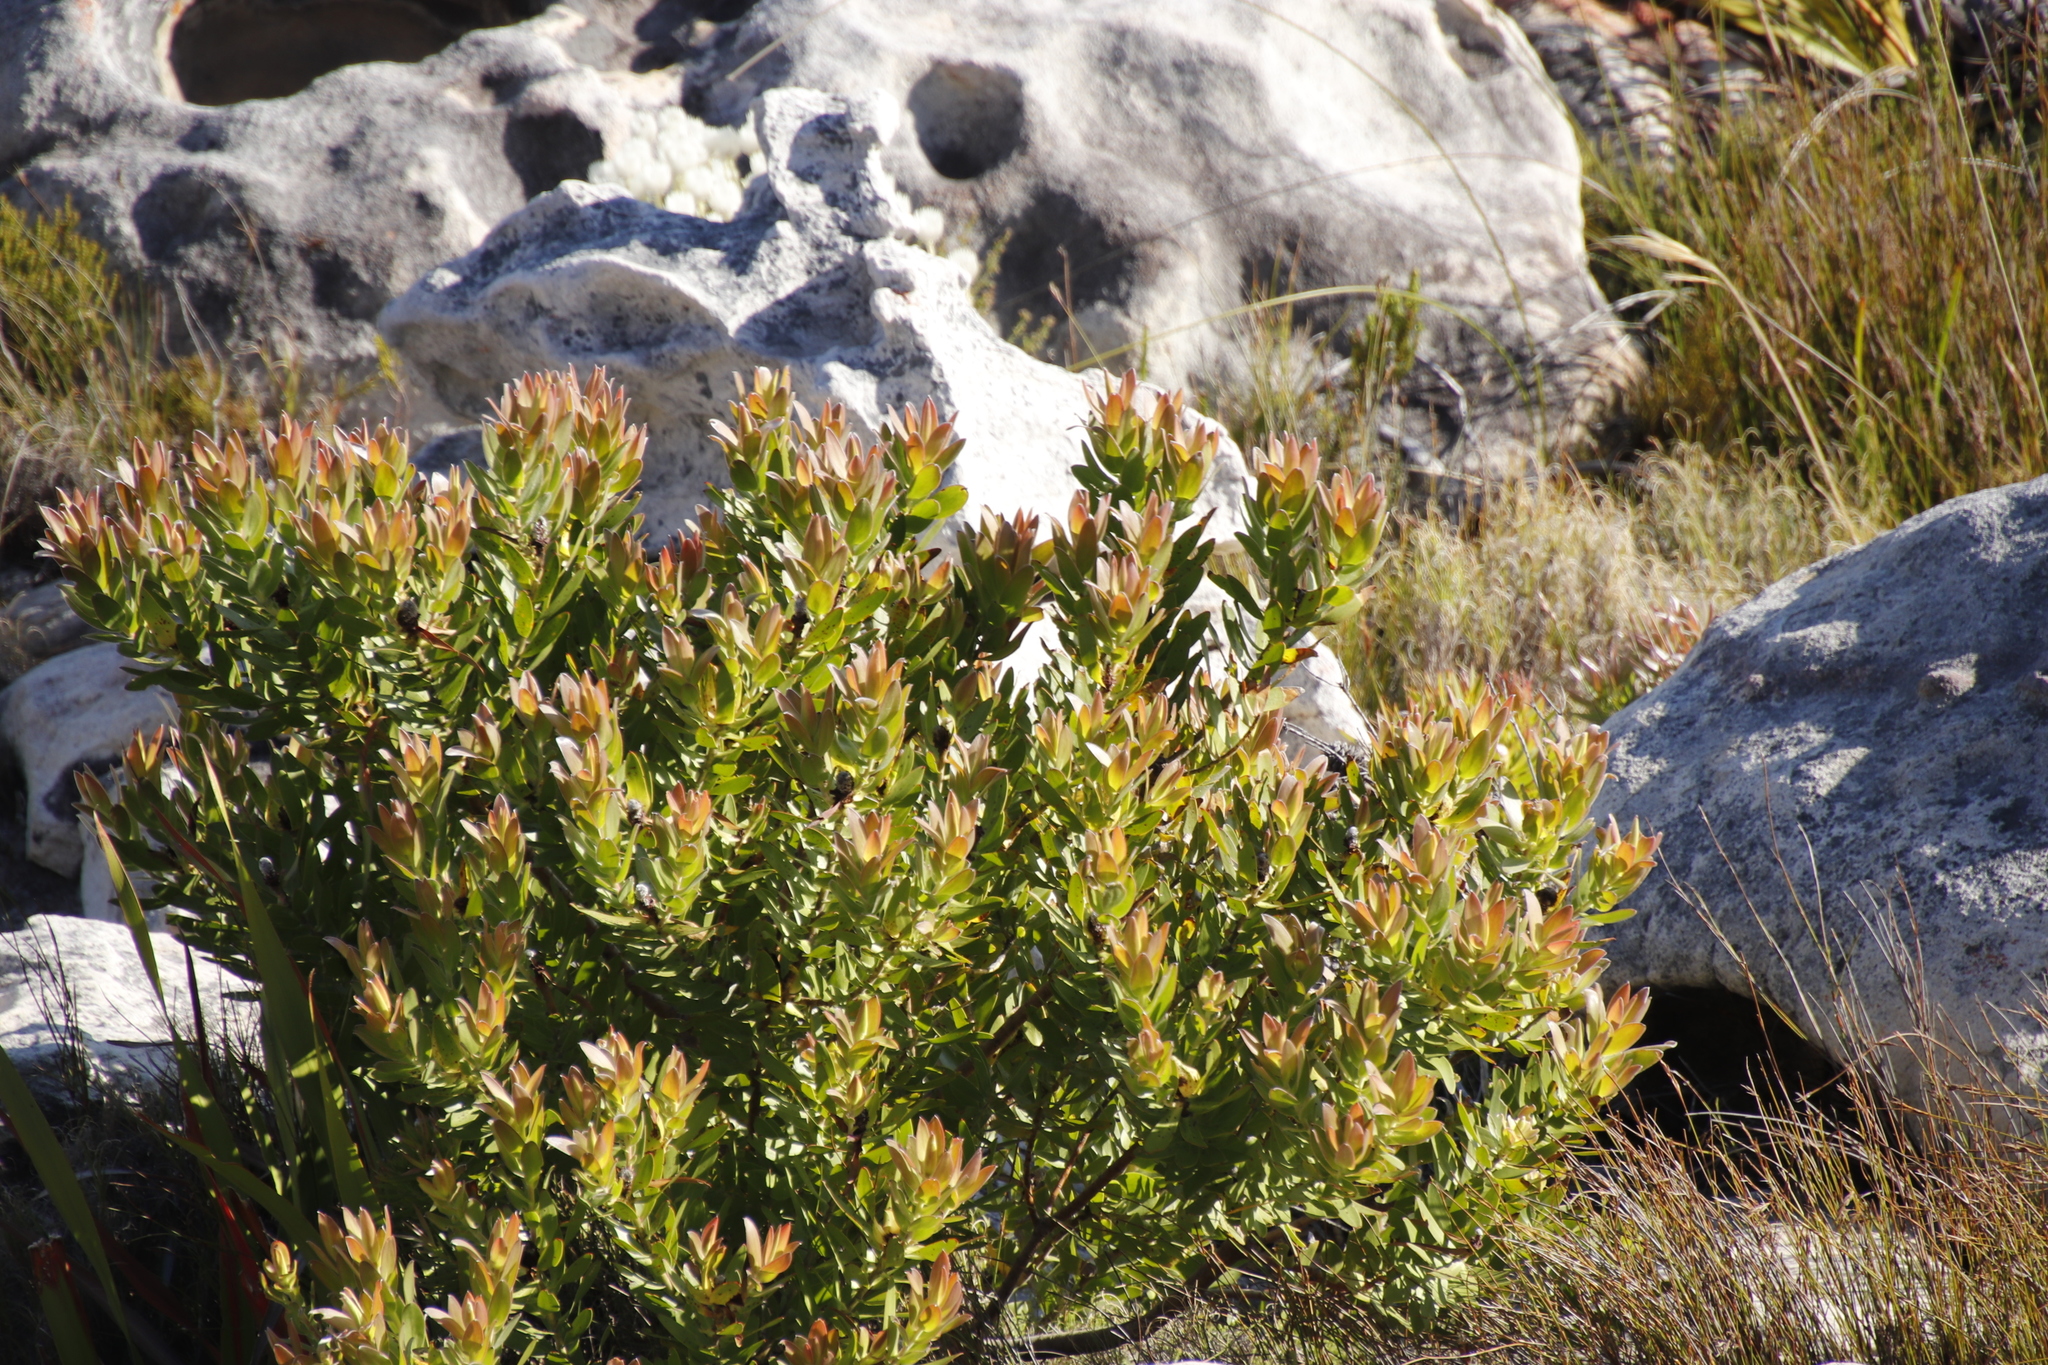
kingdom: Plantae
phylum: Tracheophyta
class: Magnoliopsida
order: Proteales
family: Proteaceae
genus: Leucadendron
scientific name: Leucadendron laureolum
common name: Golden sunshinebush
